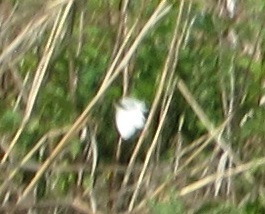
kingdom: Animalia
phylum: Arthropoda
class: Insecta
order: Lepidoptera
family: Pieridae
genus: Pieris
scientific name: Pieris rapae
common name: Small white
